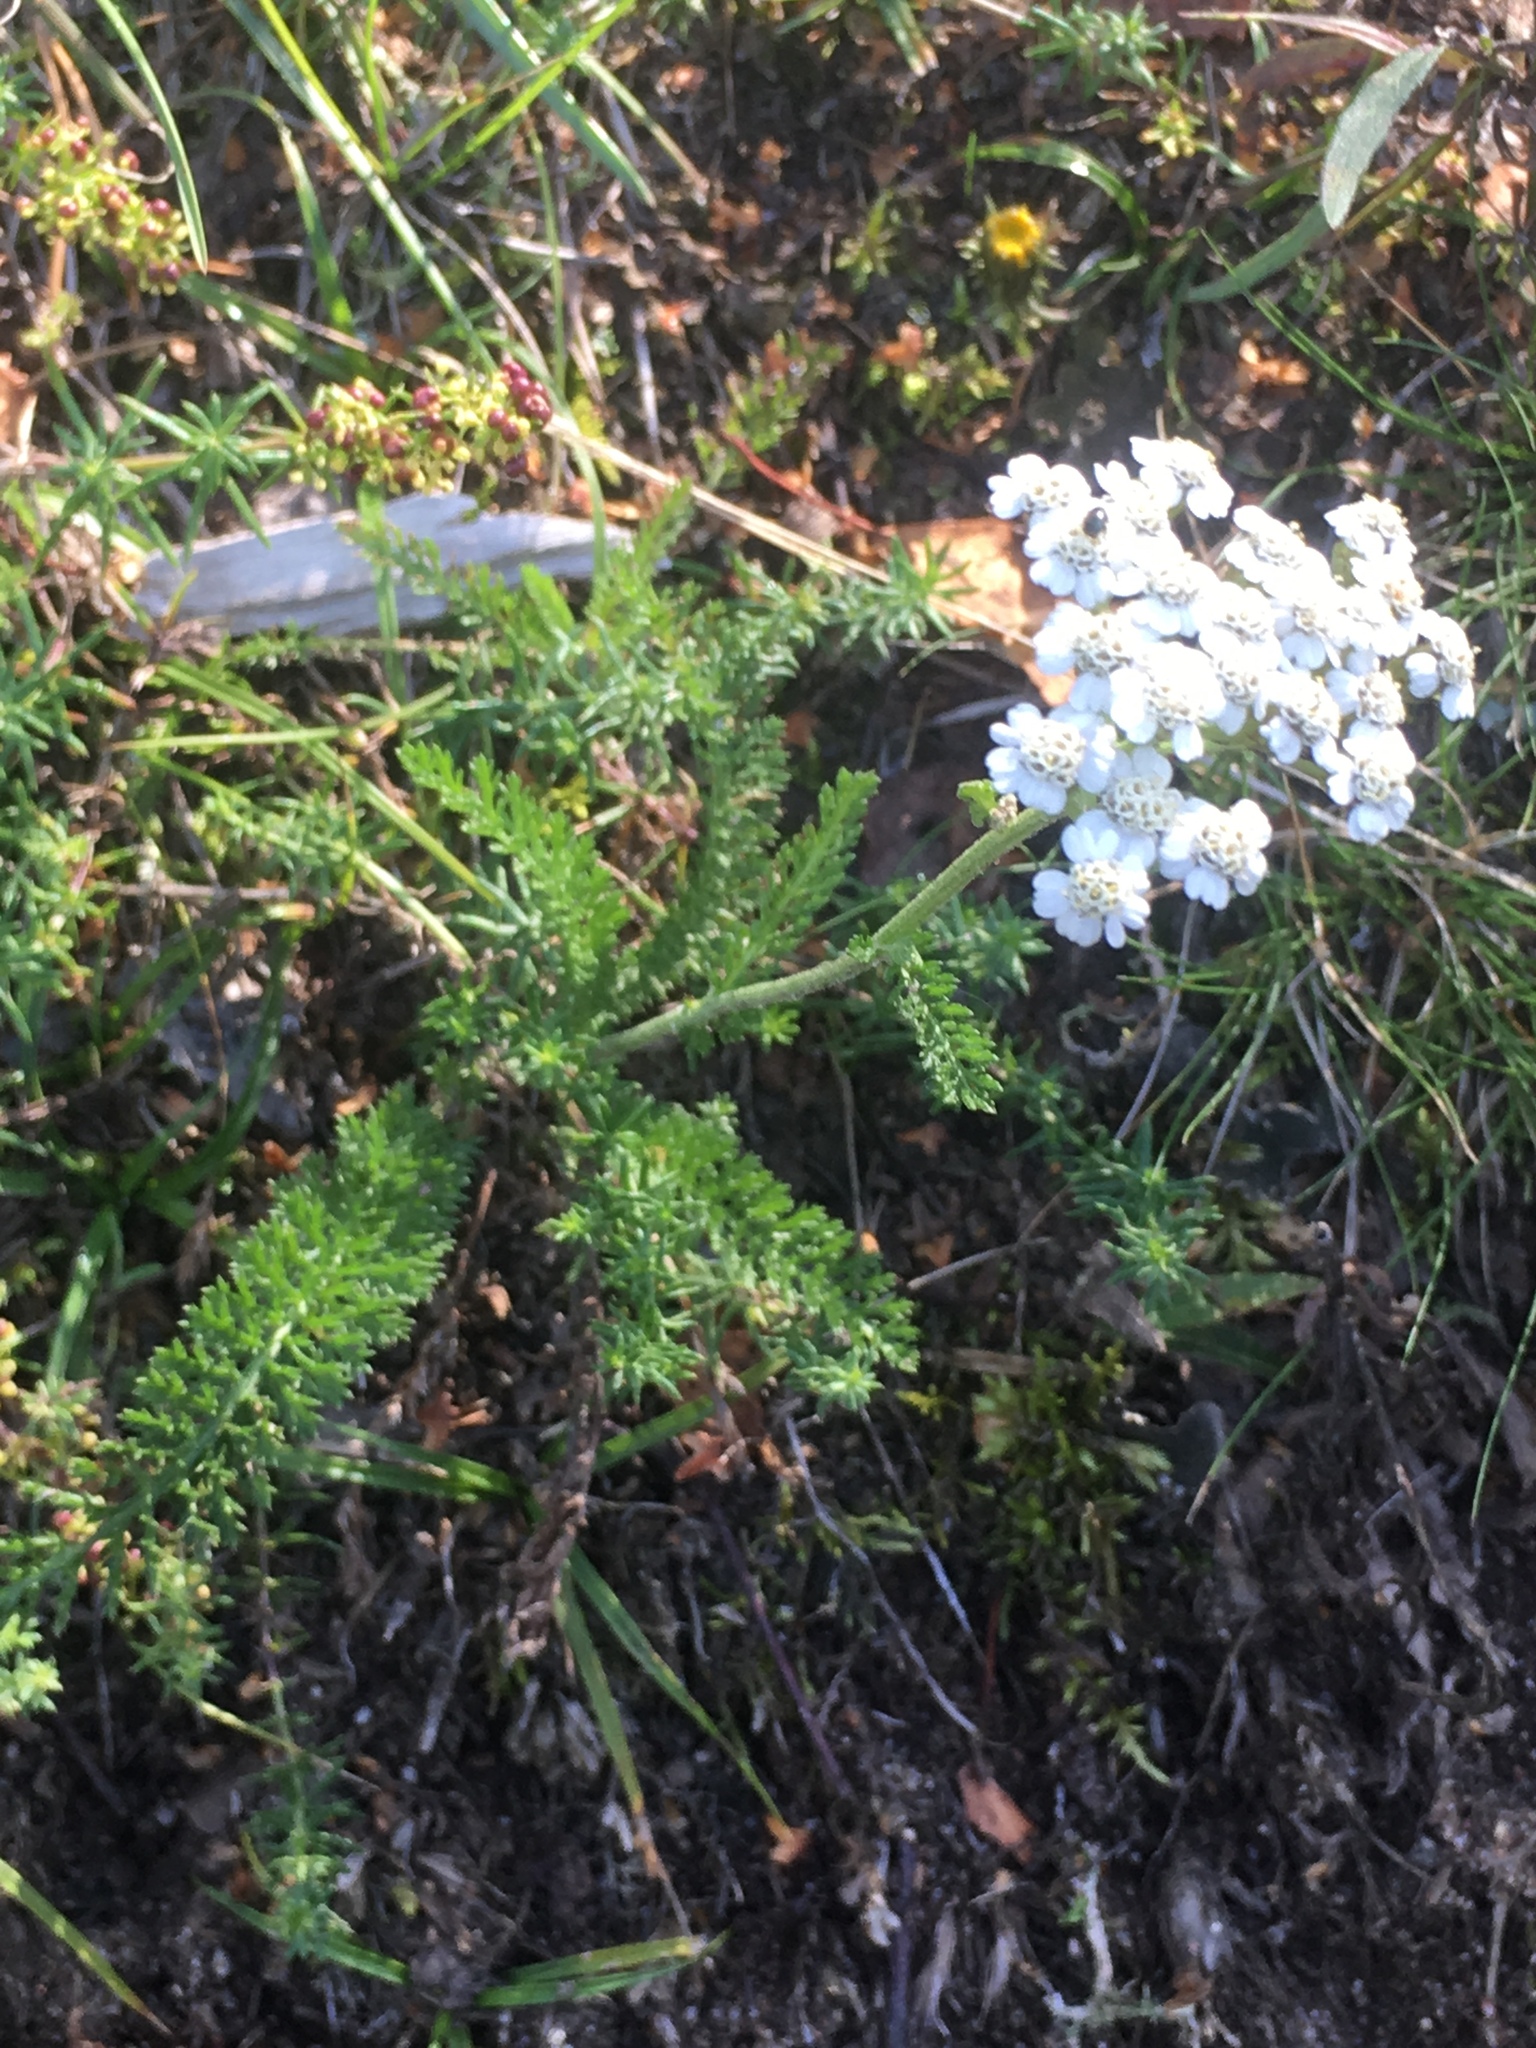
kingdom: Plantae
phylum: Tracheophyta
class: Magnoliopsida
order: Asterales
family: Asteraceae
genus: Achillea
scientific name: Achillea millefolium
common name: Yarrow
